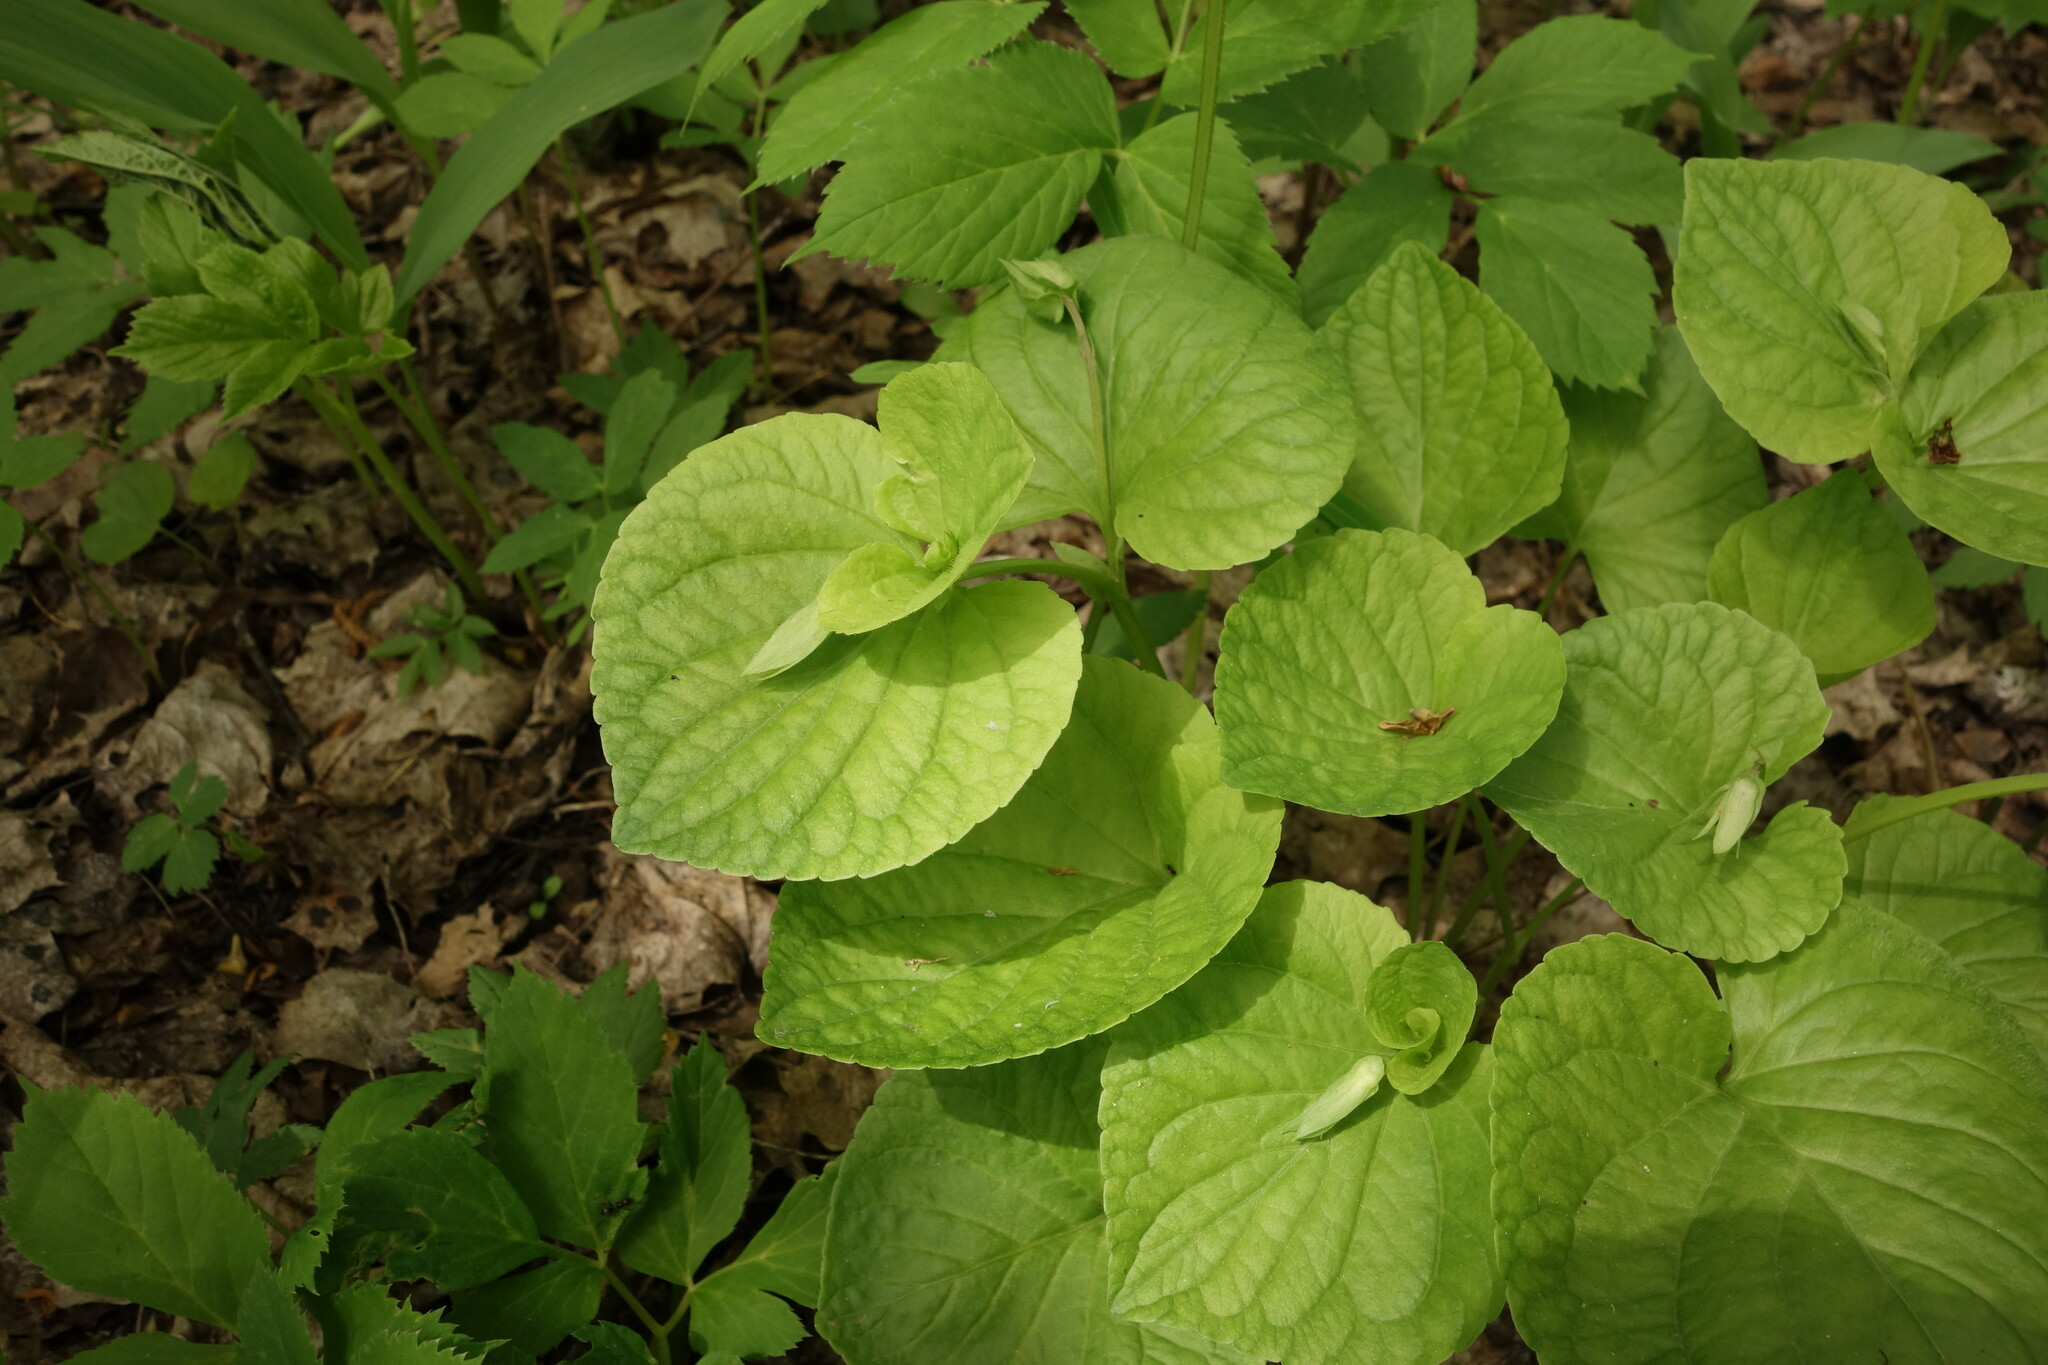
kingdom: Plantae
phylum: Tracheophyta
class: Magnoliopsida
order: Malpighiales
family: Violaceae
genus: Viola
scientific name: Viola mirabilis
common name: Wonder violet
